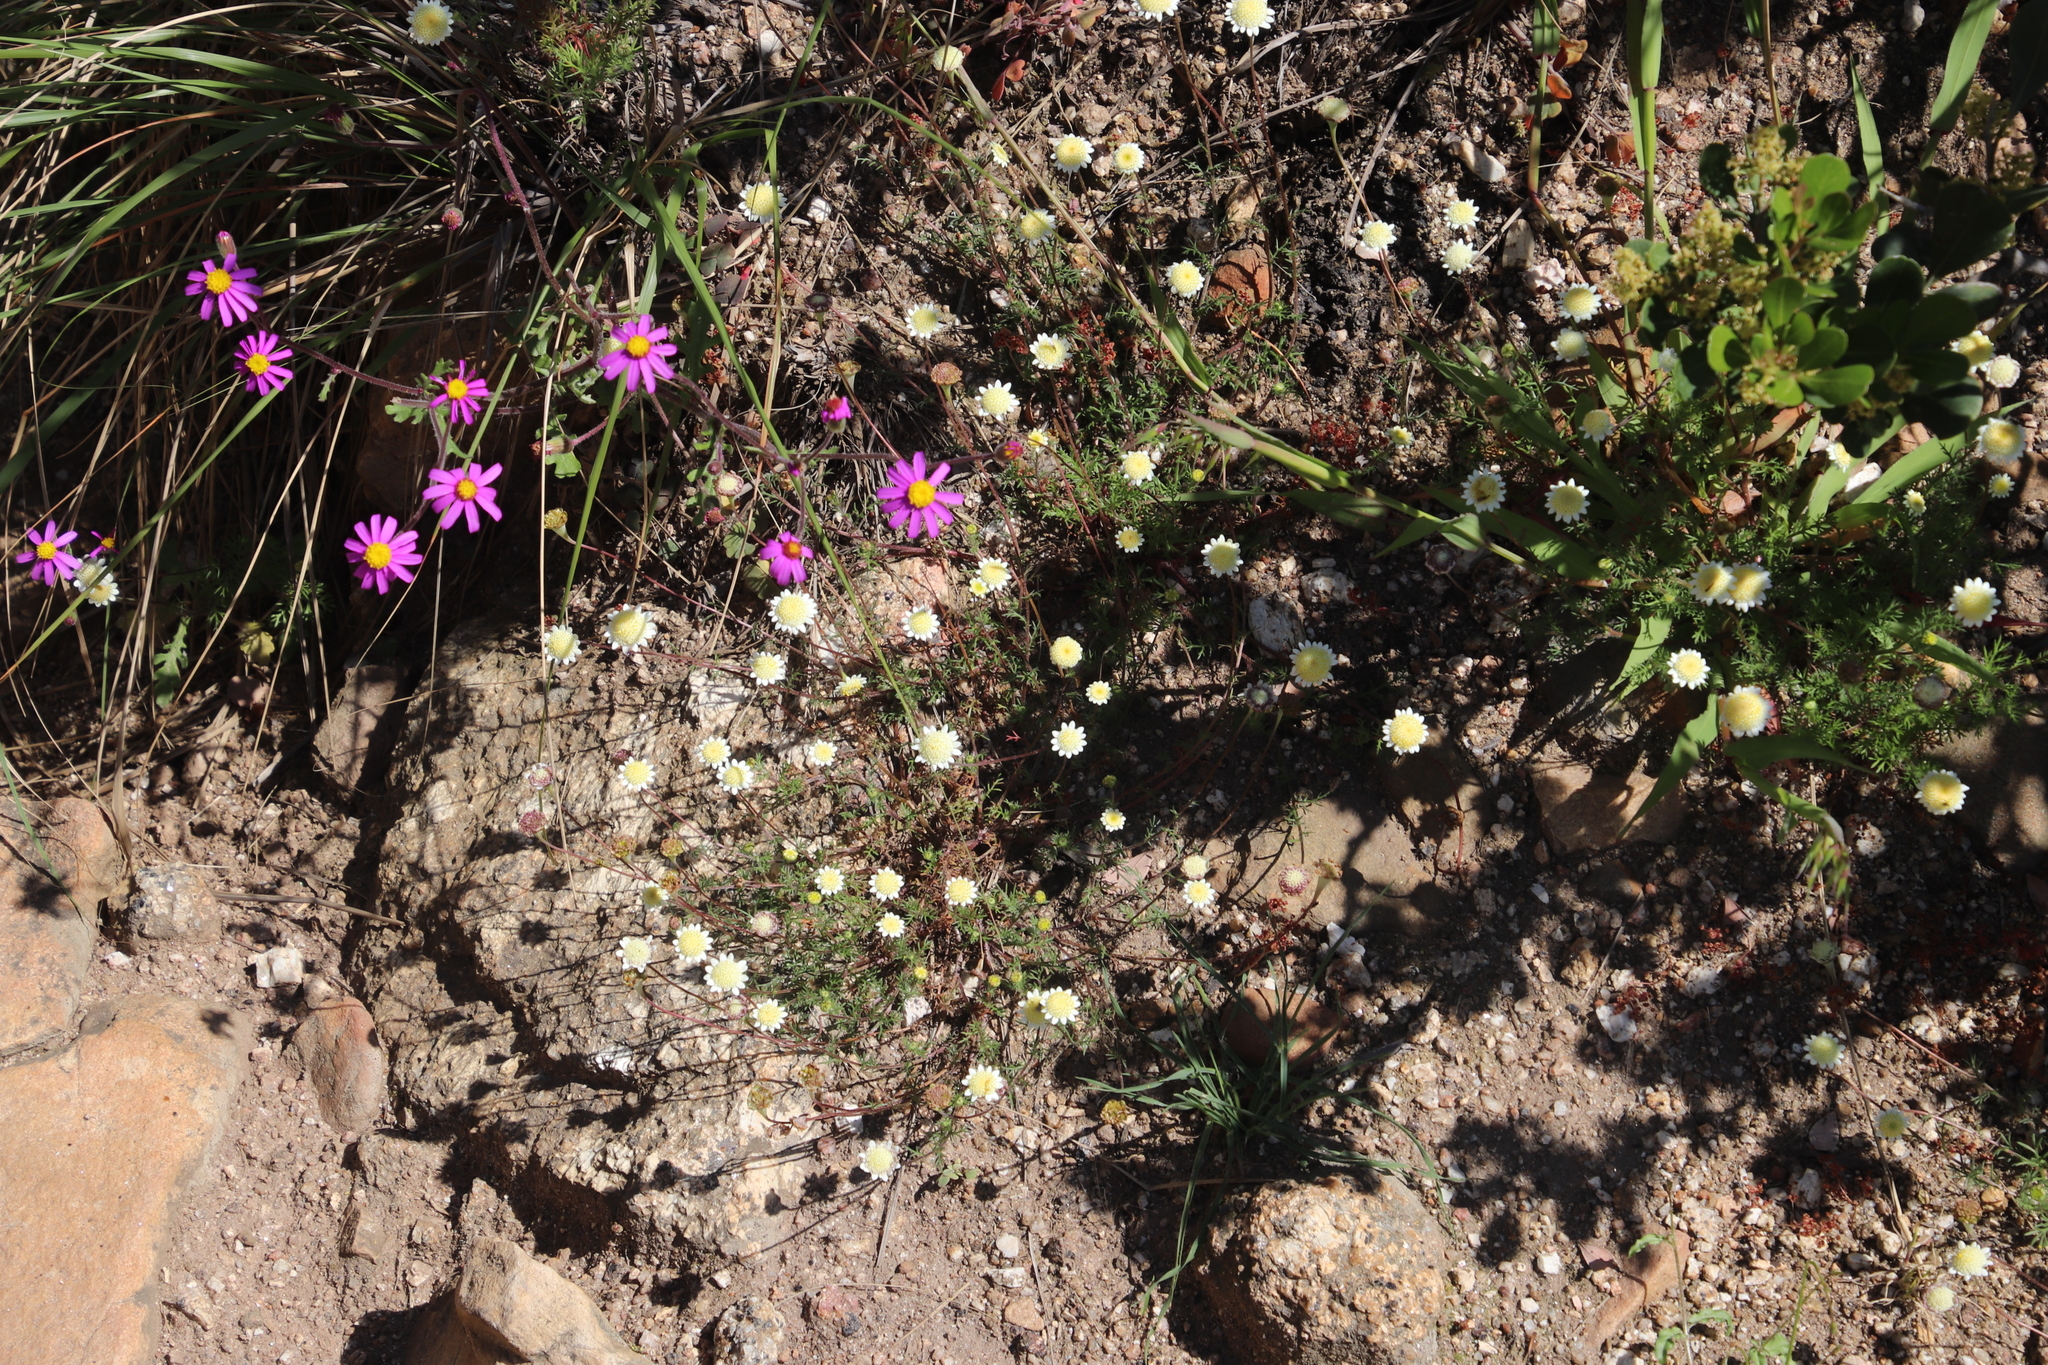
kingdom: Plantae
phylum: Tracheophyta
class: Magnoliopsida
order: Asterales
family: Asteraceae
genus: Cotula
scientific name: Cotula turbinata
